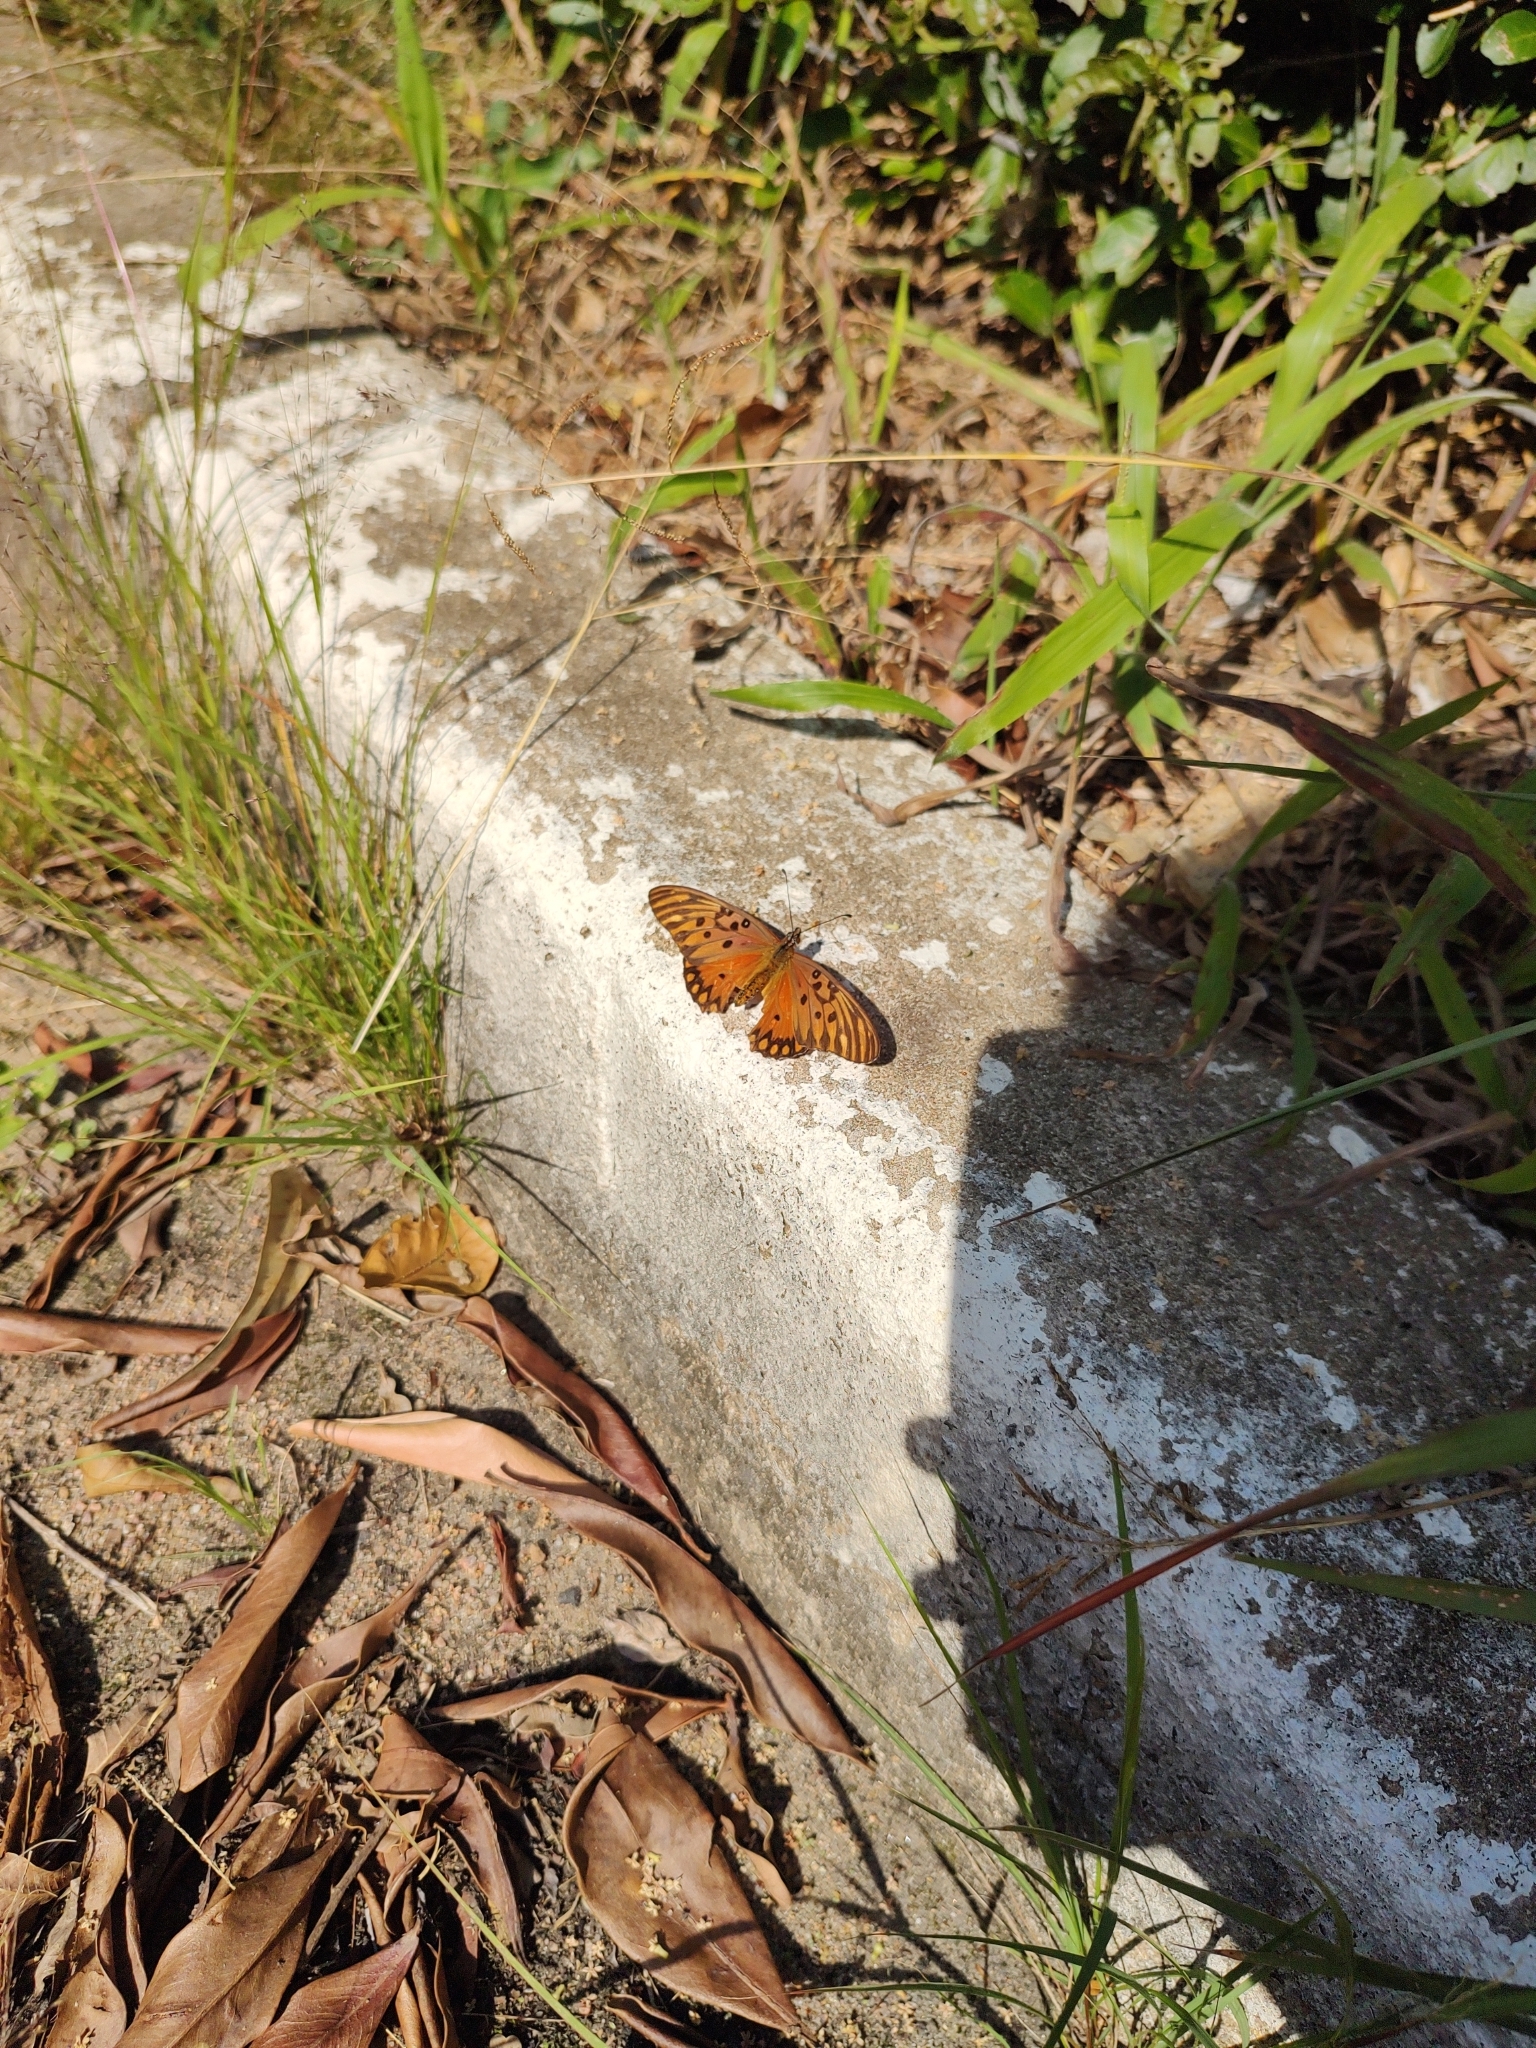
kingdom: Animalia
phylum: Arthropoda
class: Insecta
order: Lepidoptera
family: Nymphalidae
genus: Dione
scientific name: Dione vanillae
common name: Gulf fritillary
